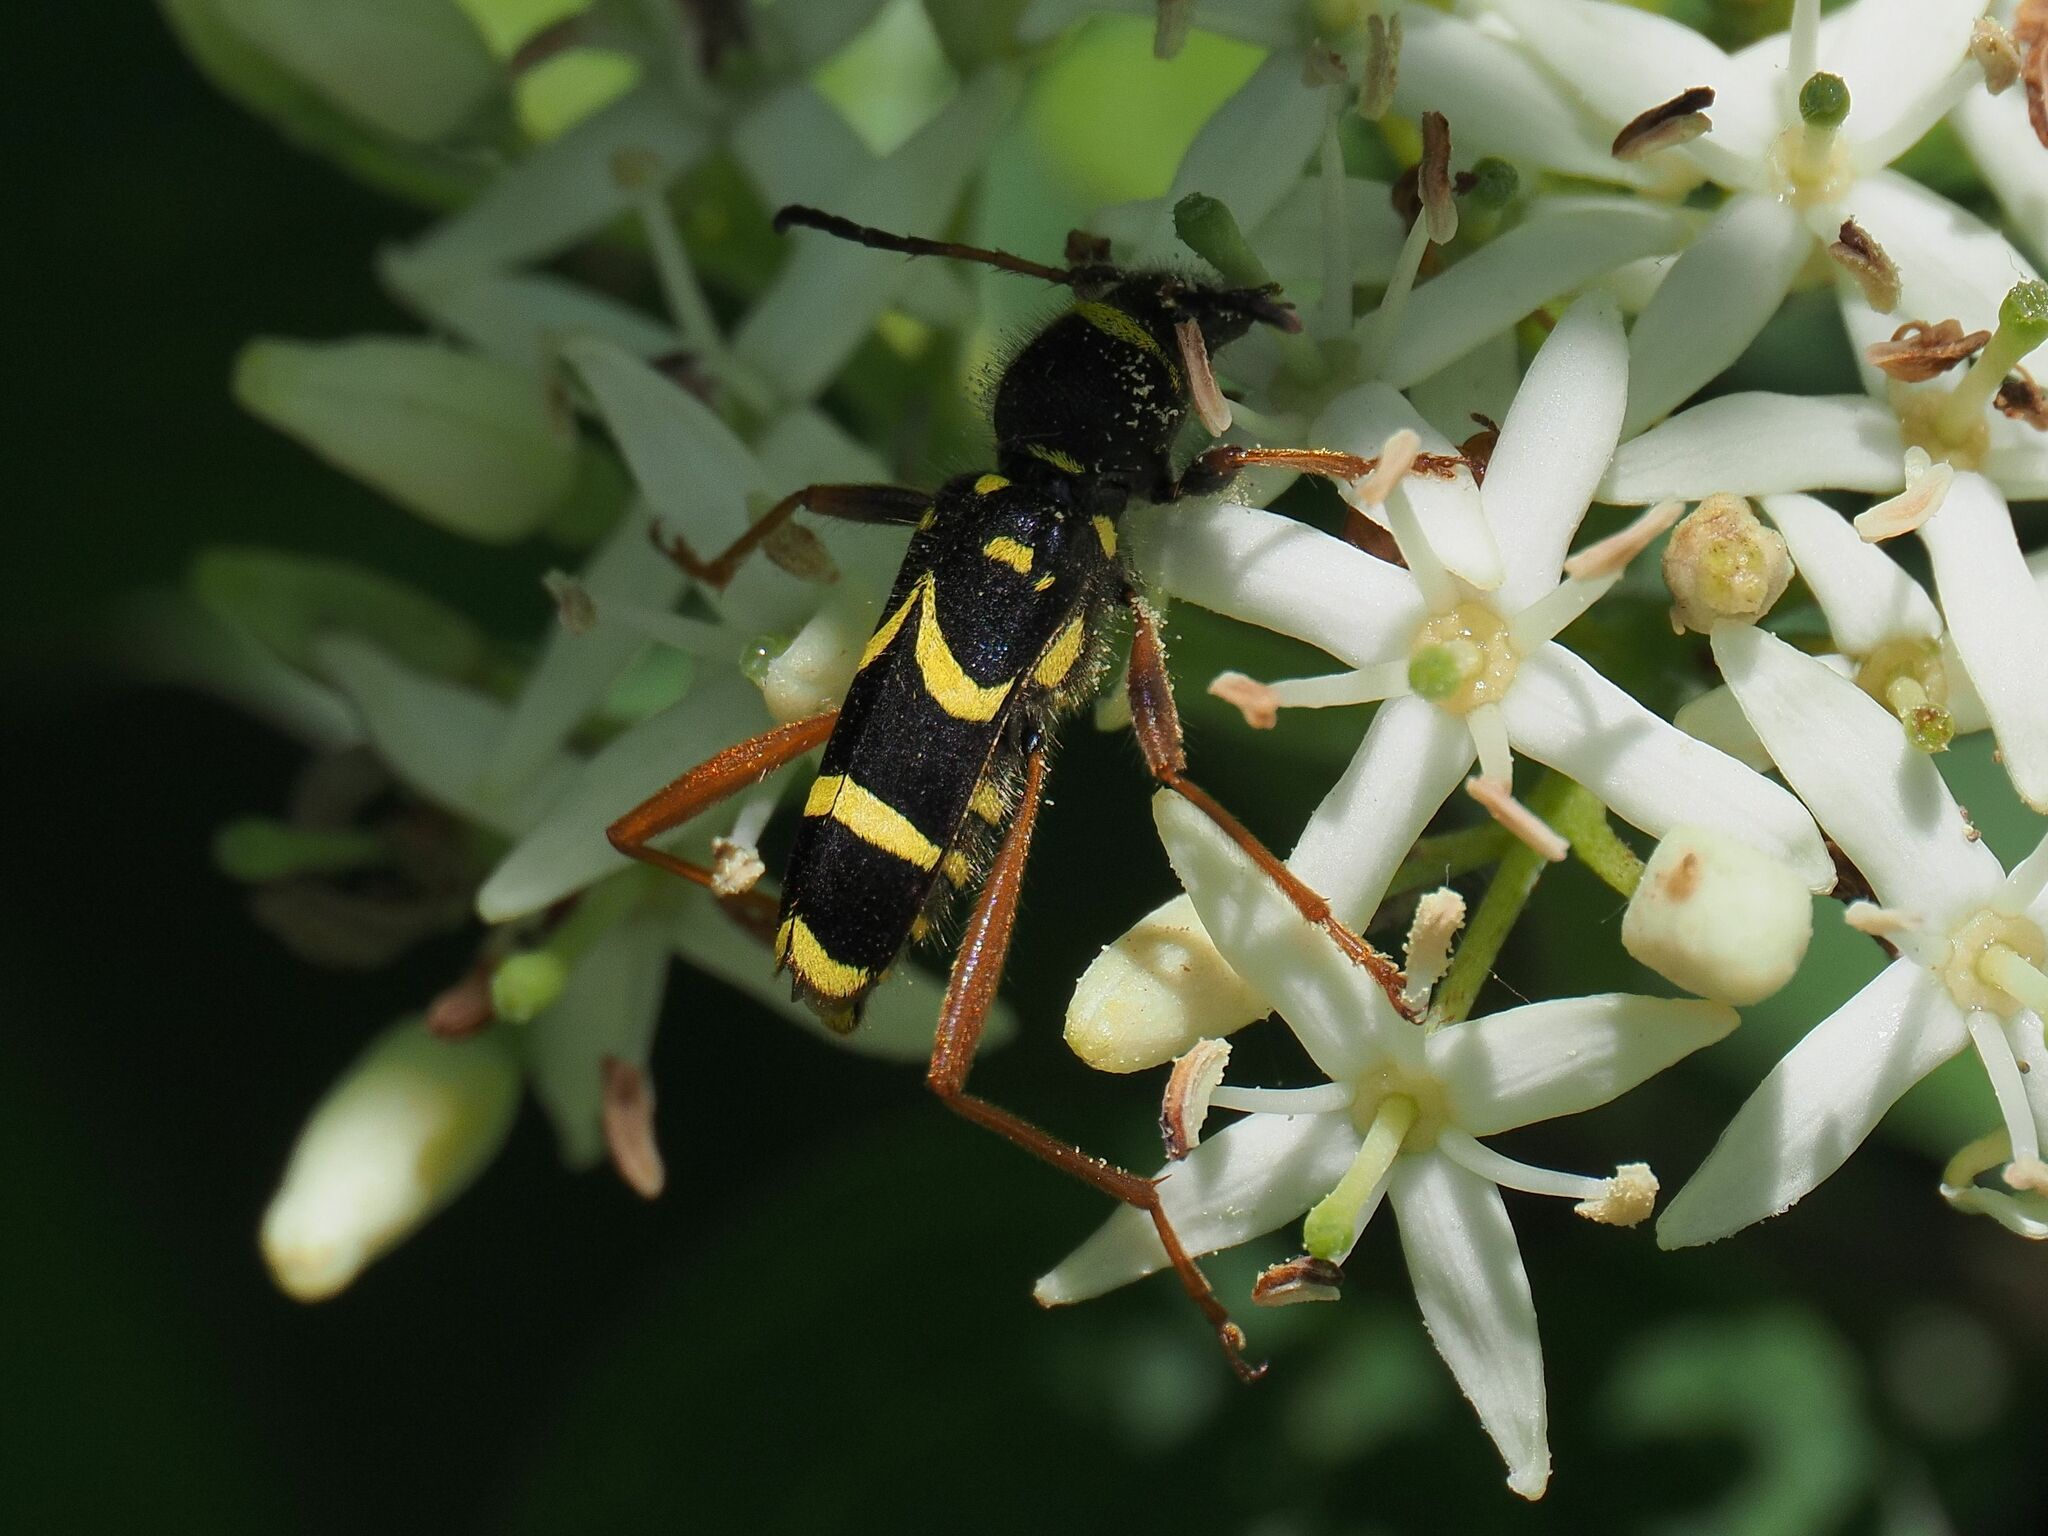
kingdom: Animalia
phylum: Arthropoda
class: Insecta
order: Coleoptera
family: Cerambycidae
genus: Clytus
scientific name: Clytus arietis
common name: Wasp beetle
